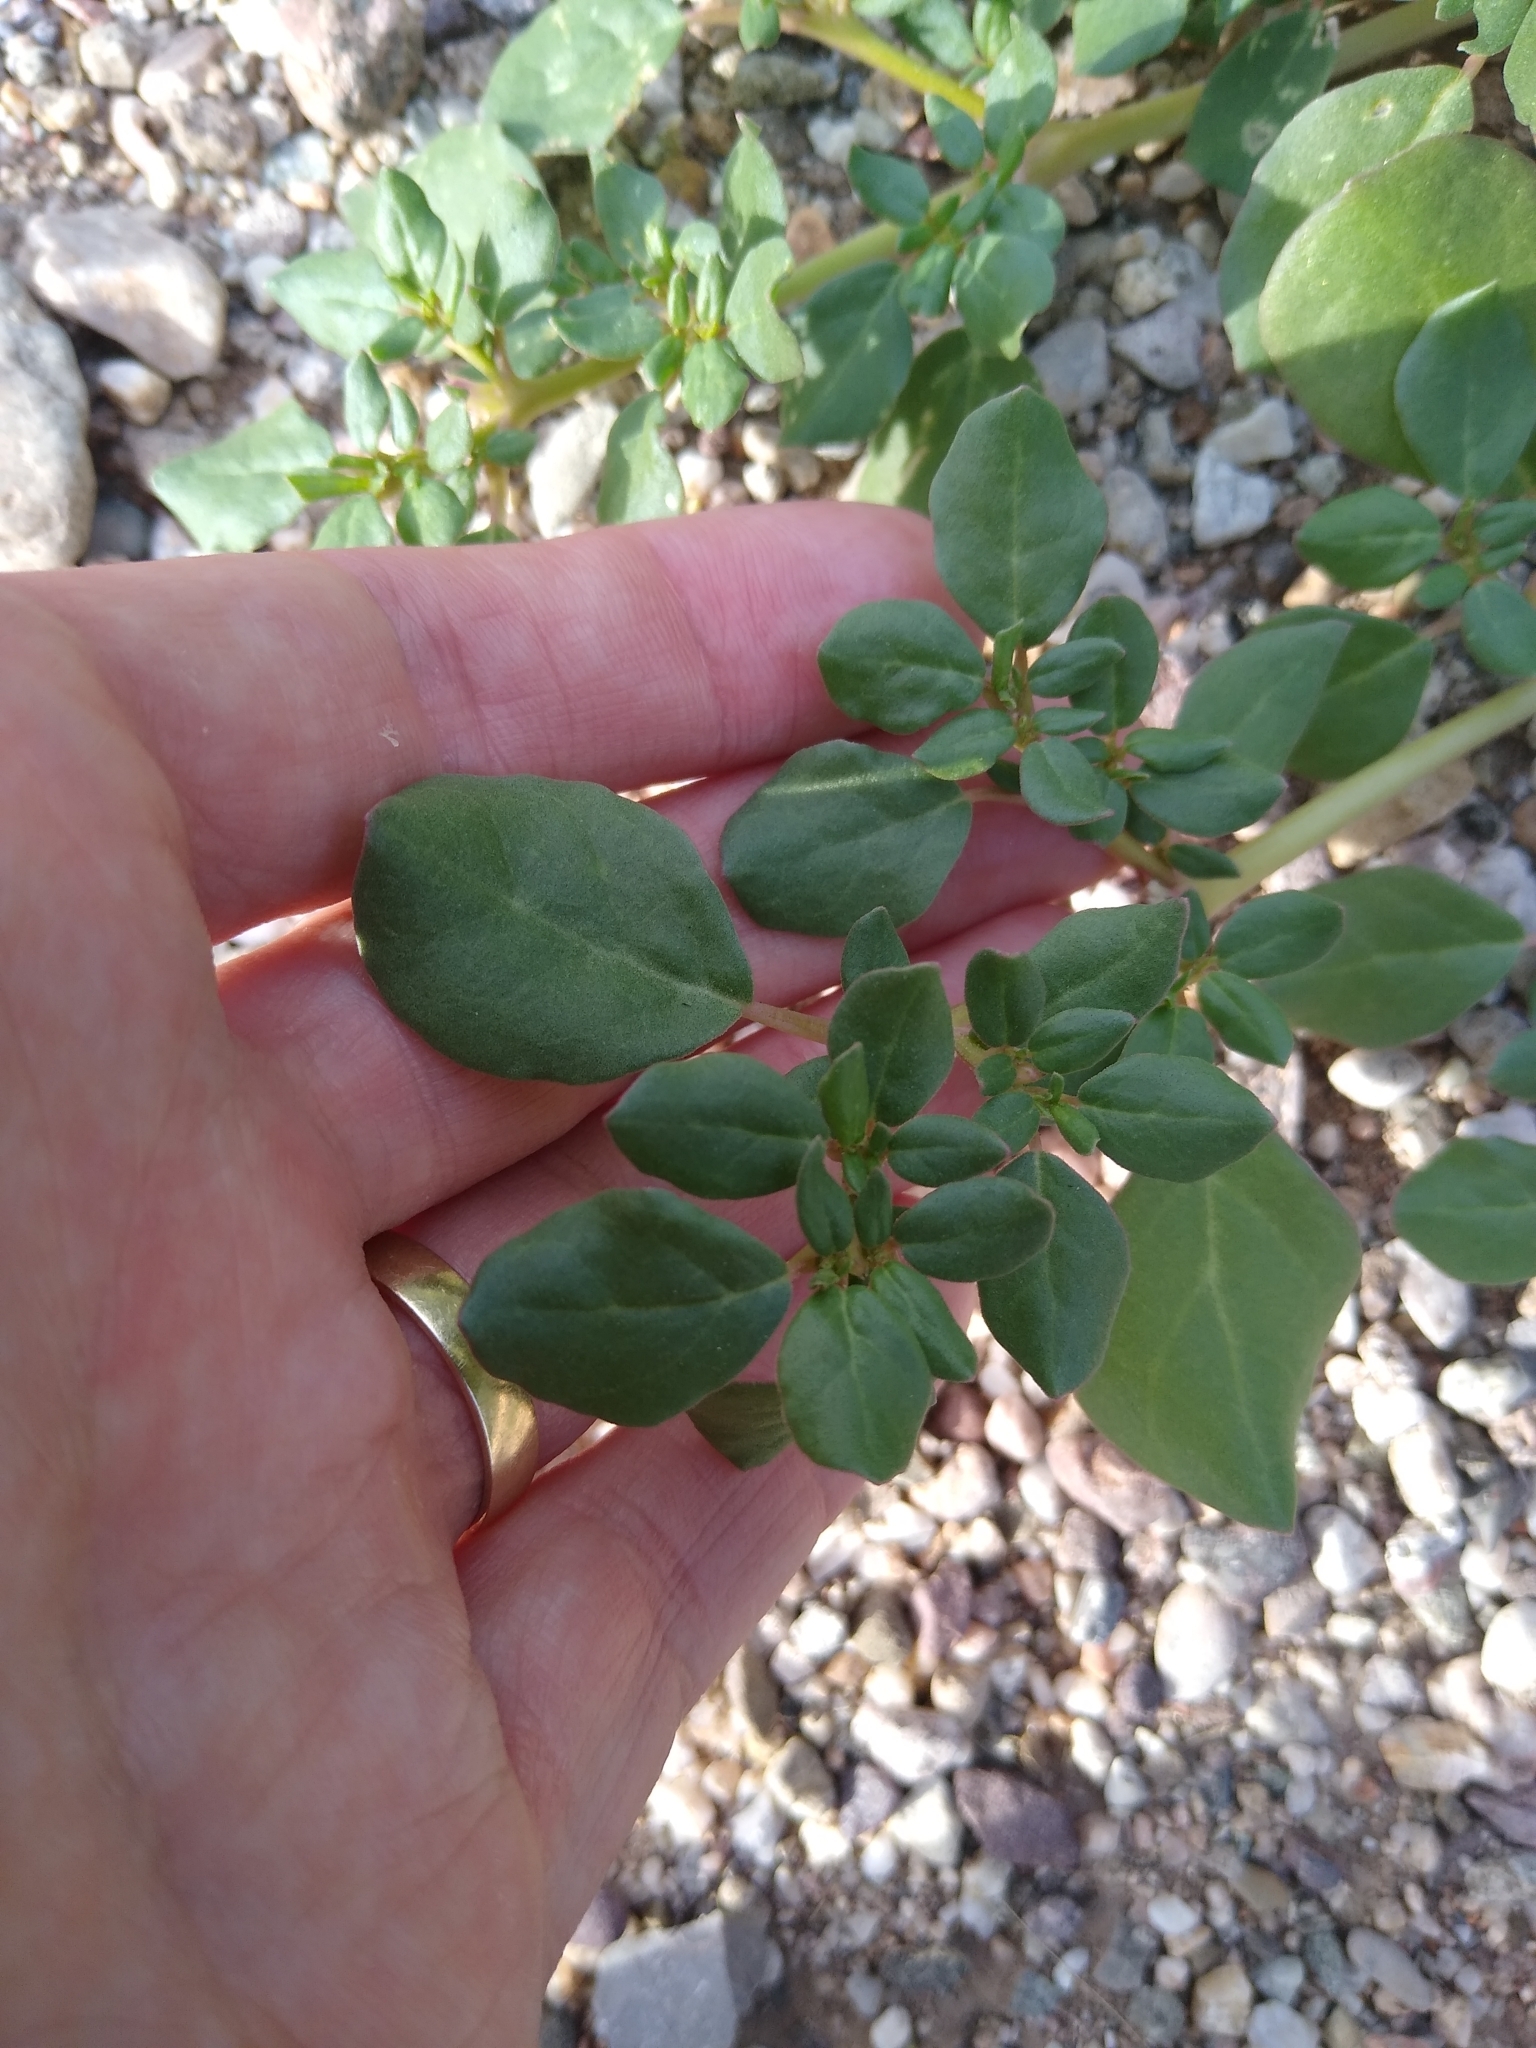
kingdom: Plantae
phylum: Tracheophyta
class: Magnoliopsida
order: Caryophyllales
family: Aizoaceae
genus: Trianthema
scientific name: Trianthema portulacastrum
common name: Desert horsepurslane
